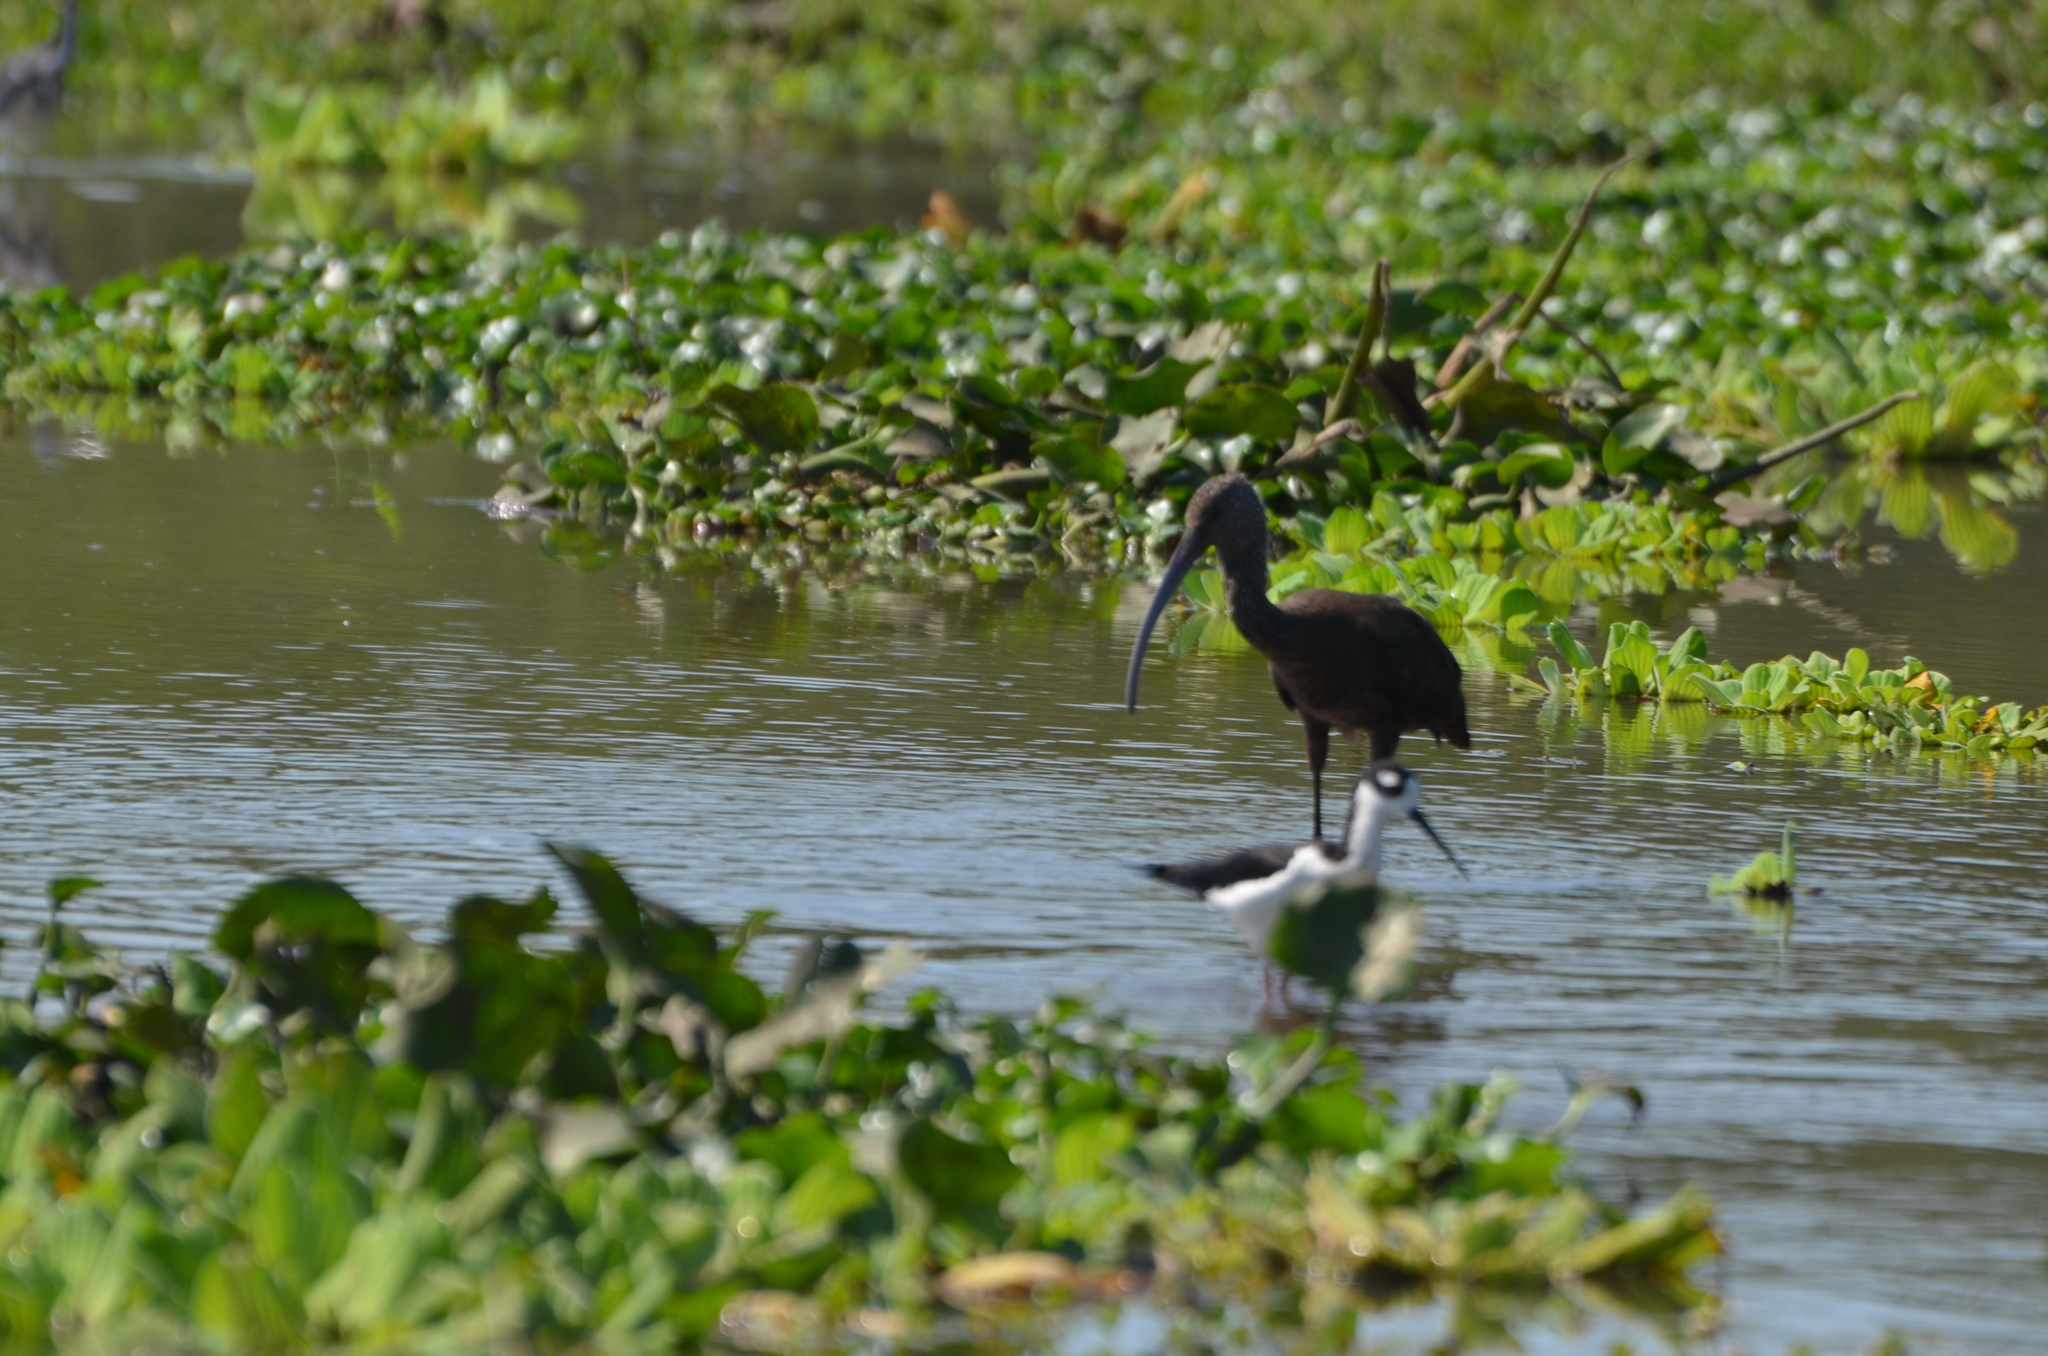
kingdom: Animalia
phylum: Chordata
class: Aves
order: Pelecaniformes
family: Threskiornithidae
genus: Plegadis
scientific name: Plegadis chihi
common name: White-faced ibis
